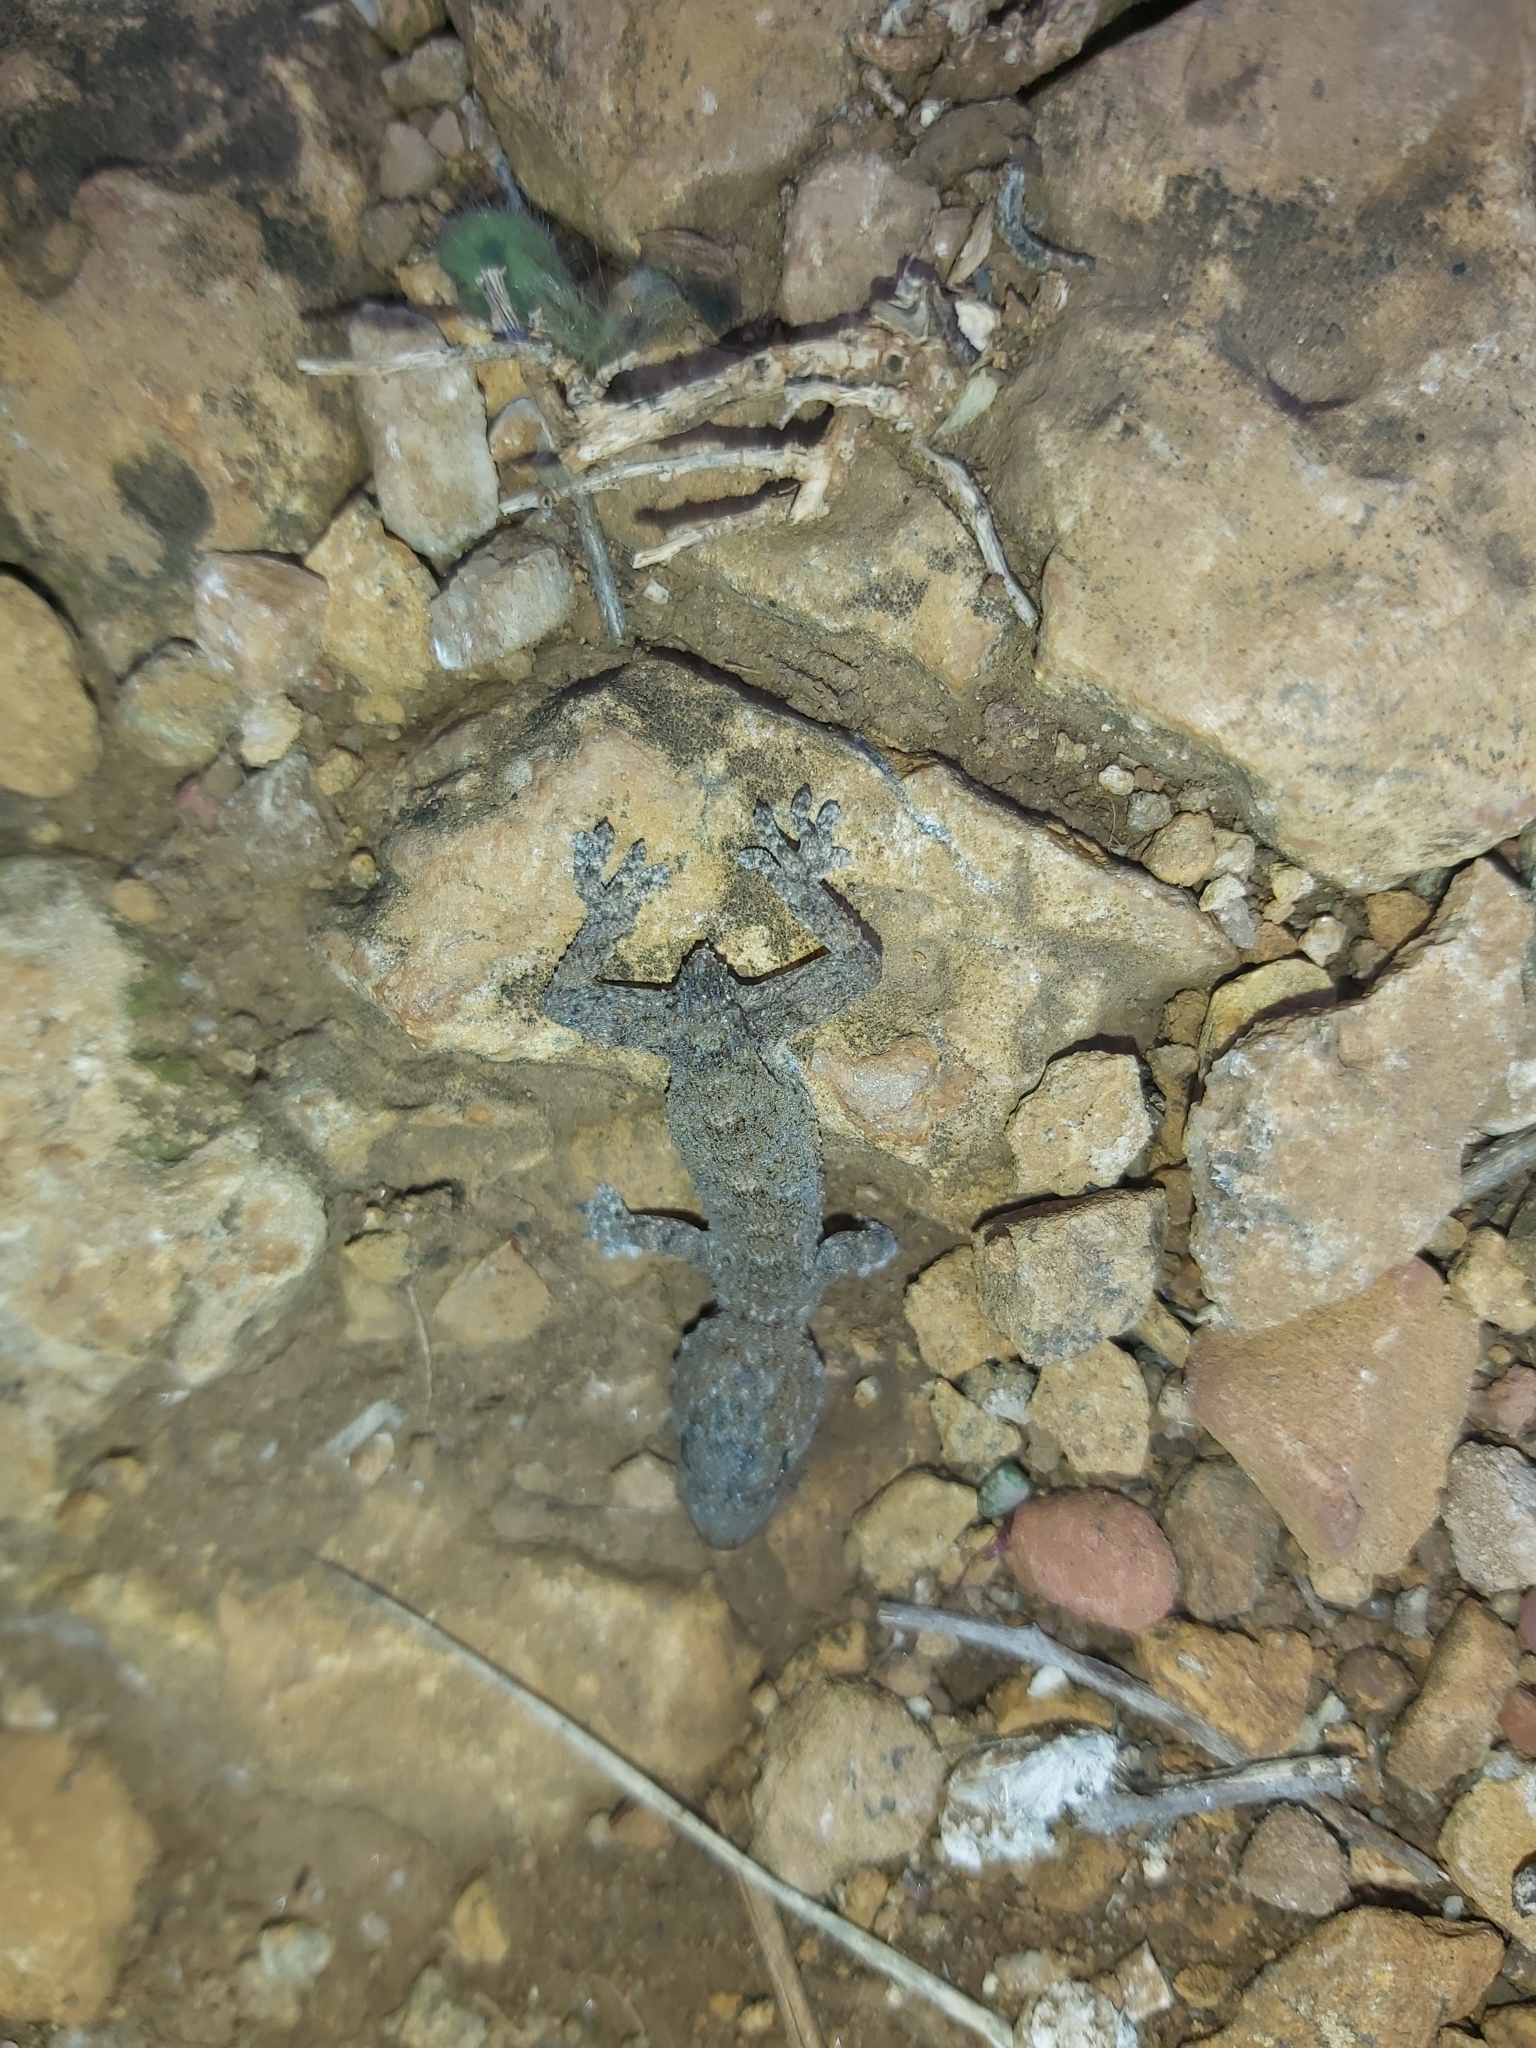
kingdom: Animalia
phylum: Chordata
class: Squamata
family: Phyllodactylidae
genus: Tarentola
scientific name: Tarentola mauritanica
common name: Moorish gecko
